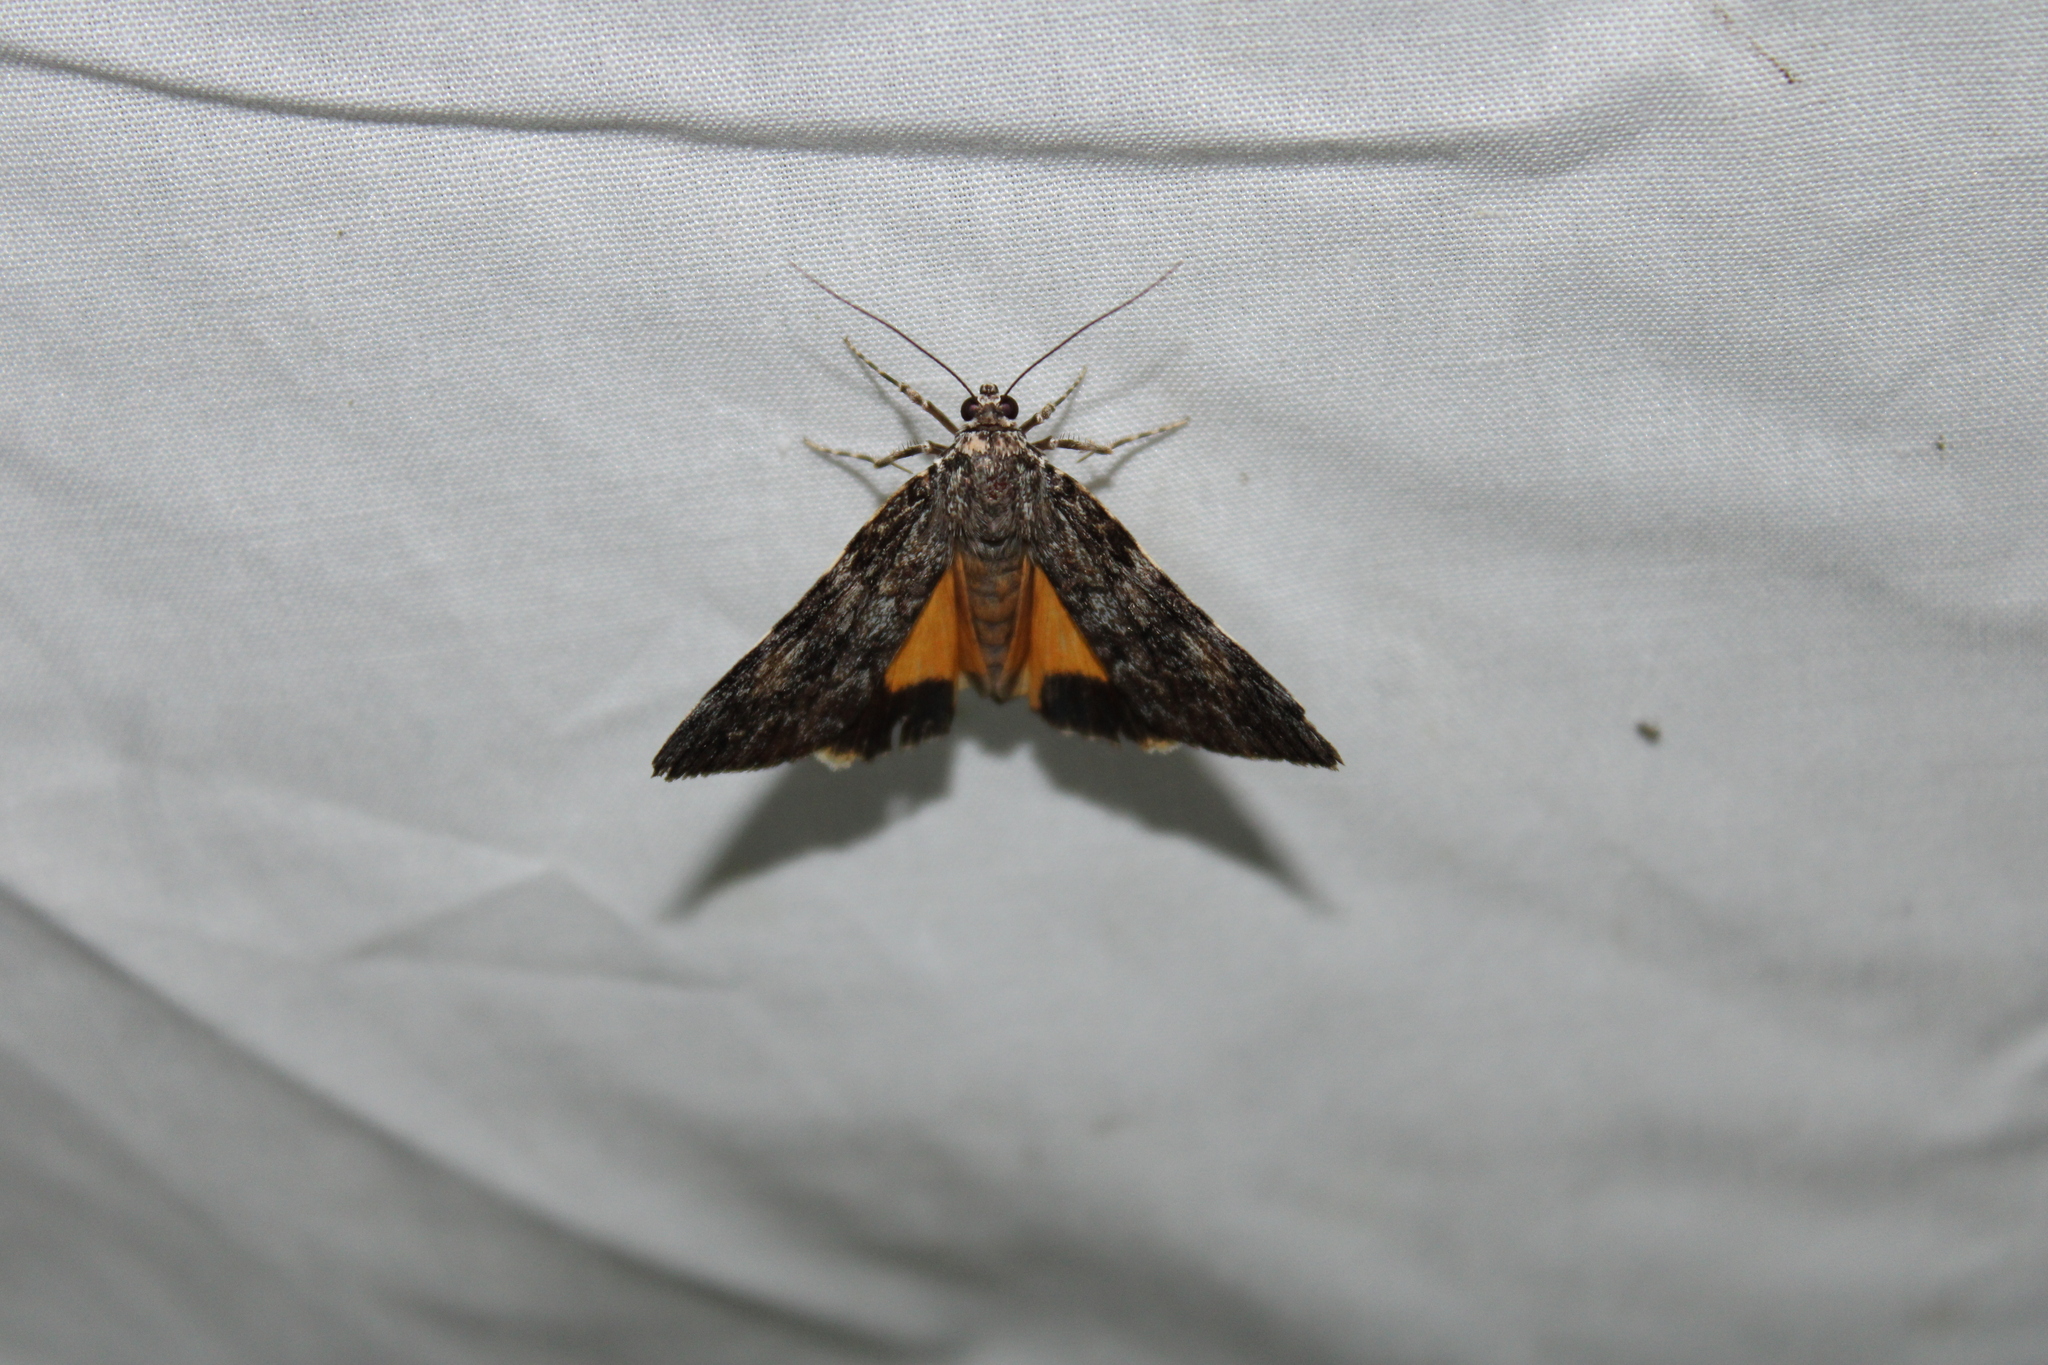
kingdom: Animalia
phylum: Arthropoda
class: Insecta
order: Lepidoptera
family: Erebidae
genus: Catocala
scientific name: Catocala lineella
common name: Little lined underwing
